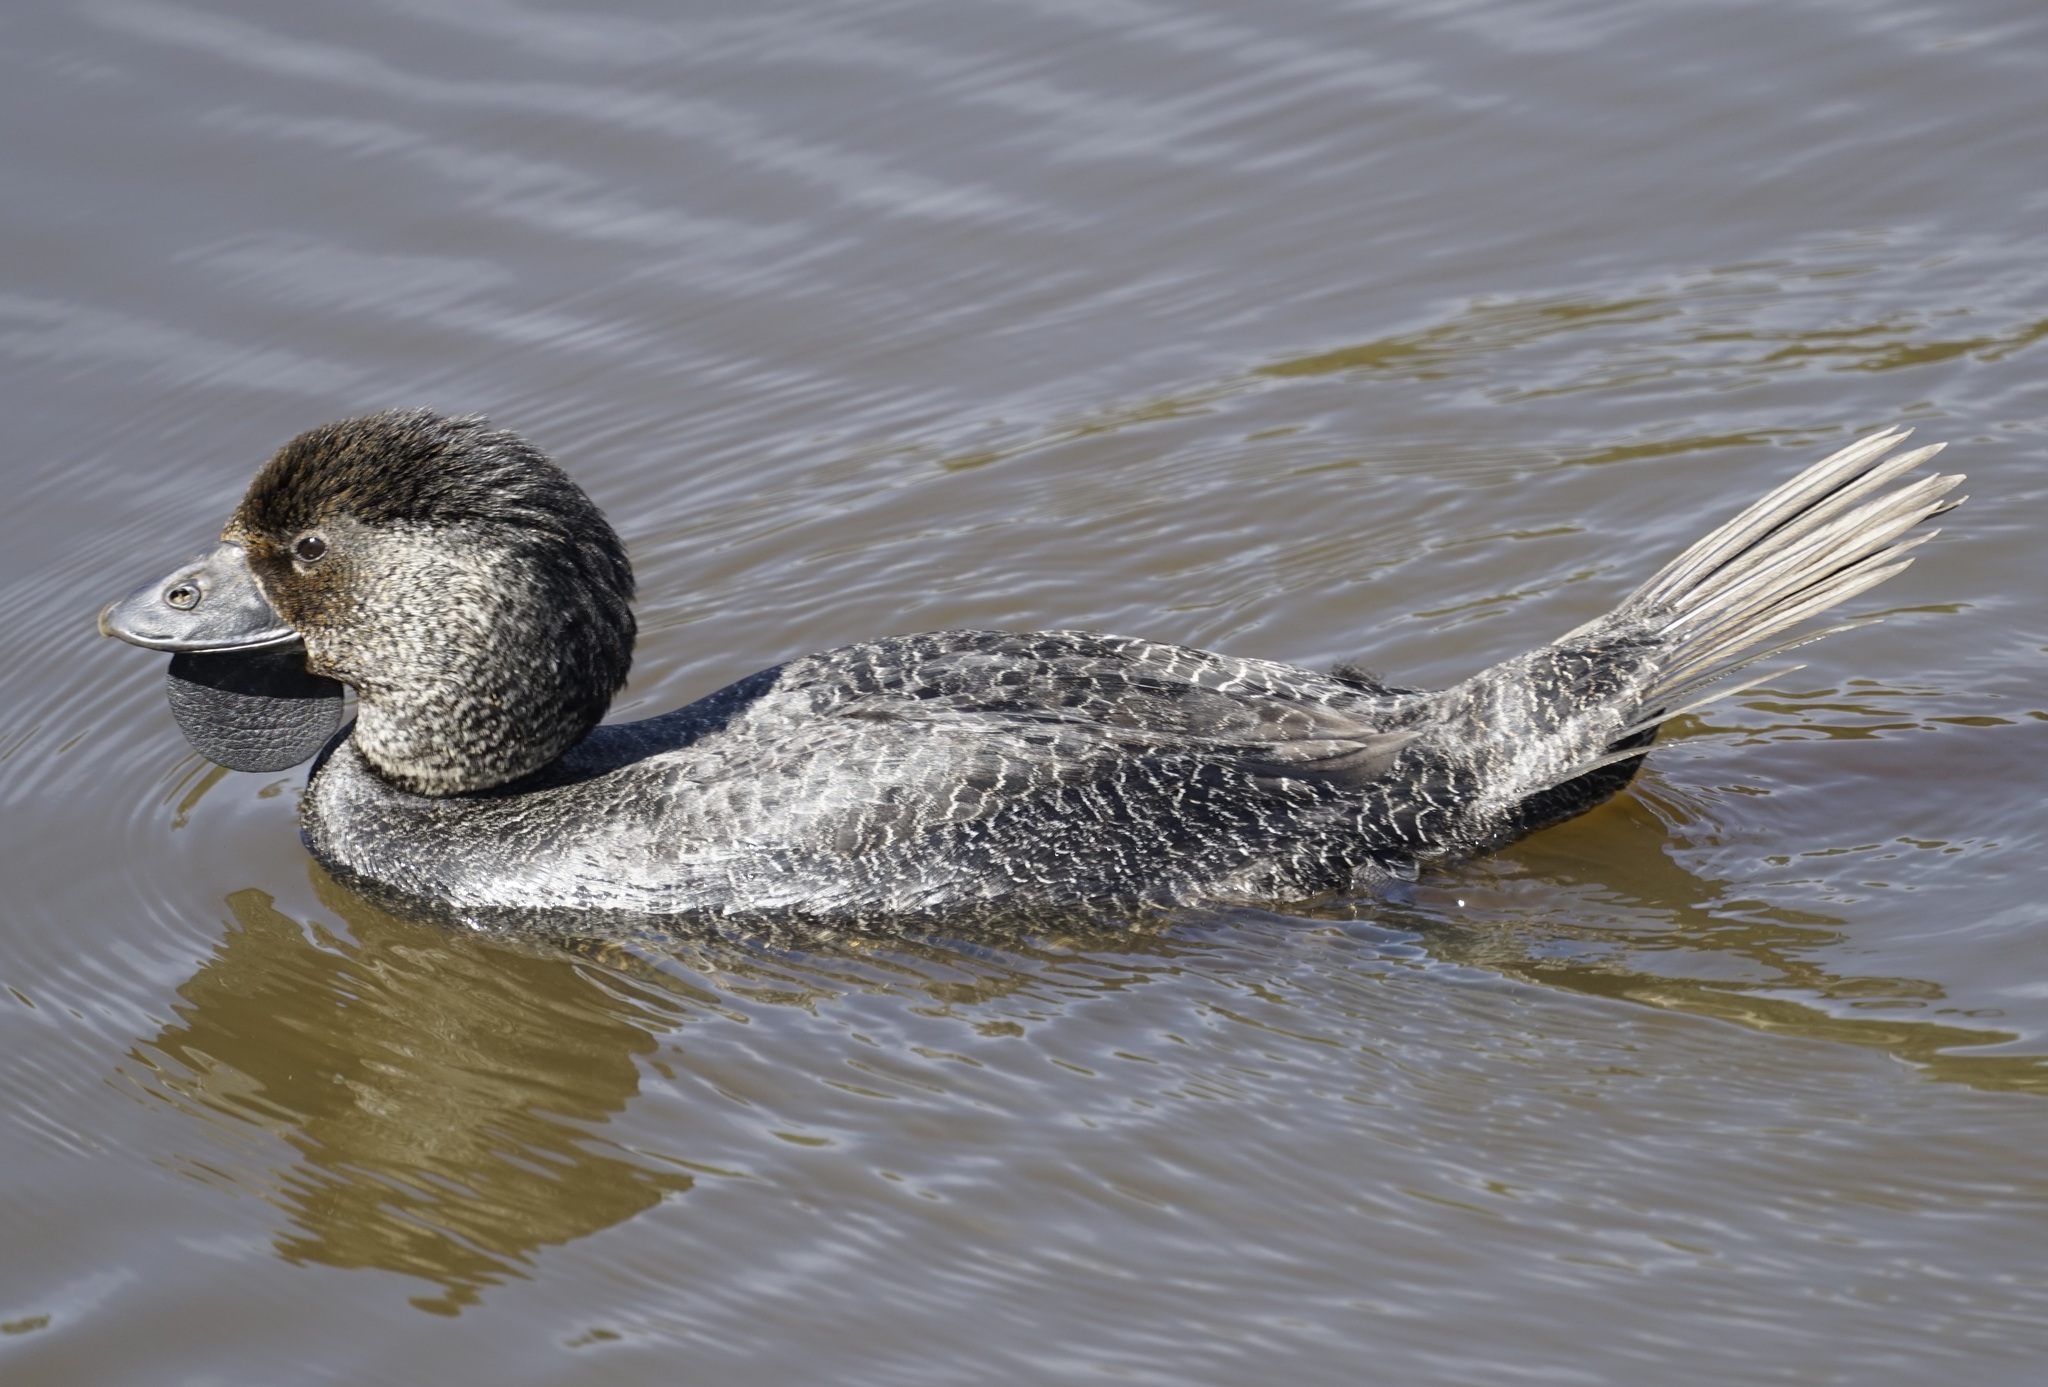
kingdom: Animalia
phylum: Chordata
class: Aves
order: Anseriformes
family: Anatidae
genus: Biziura
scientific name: Biziura lobata
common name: Musk duck
